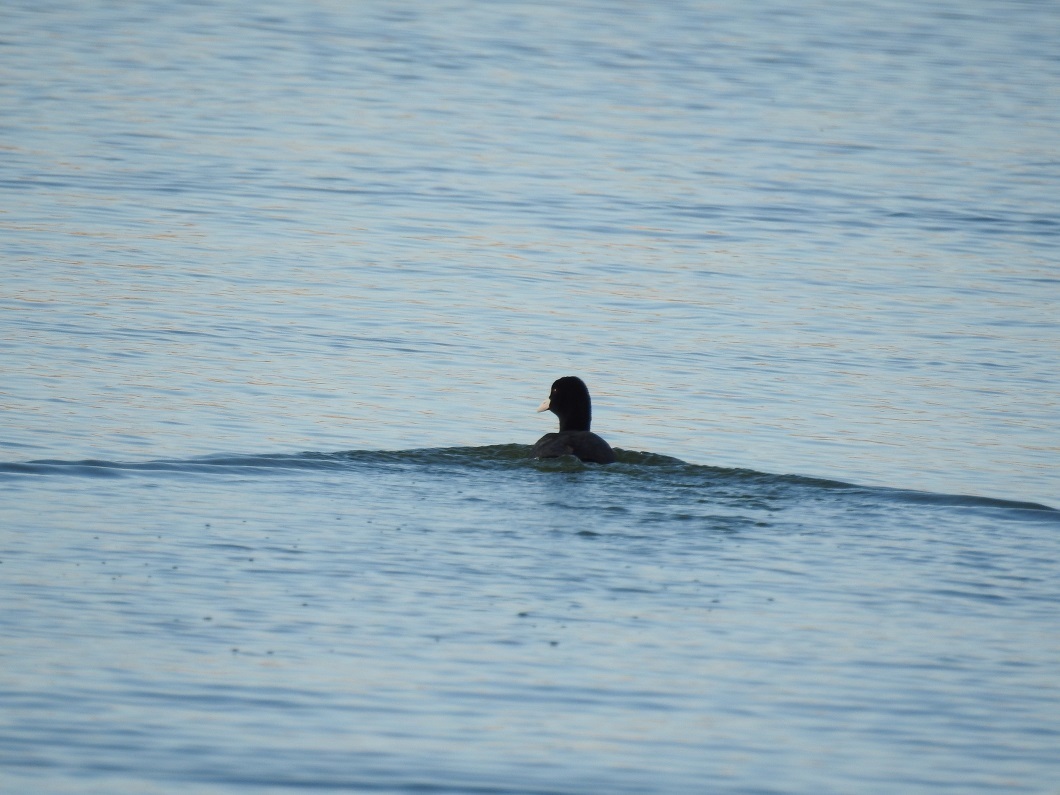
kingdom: Animalia
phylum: Chordata
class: Aves
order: Gruiformes
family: Rallidae
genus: Fulica
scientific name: Fulica atra
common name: Eurasian coot
